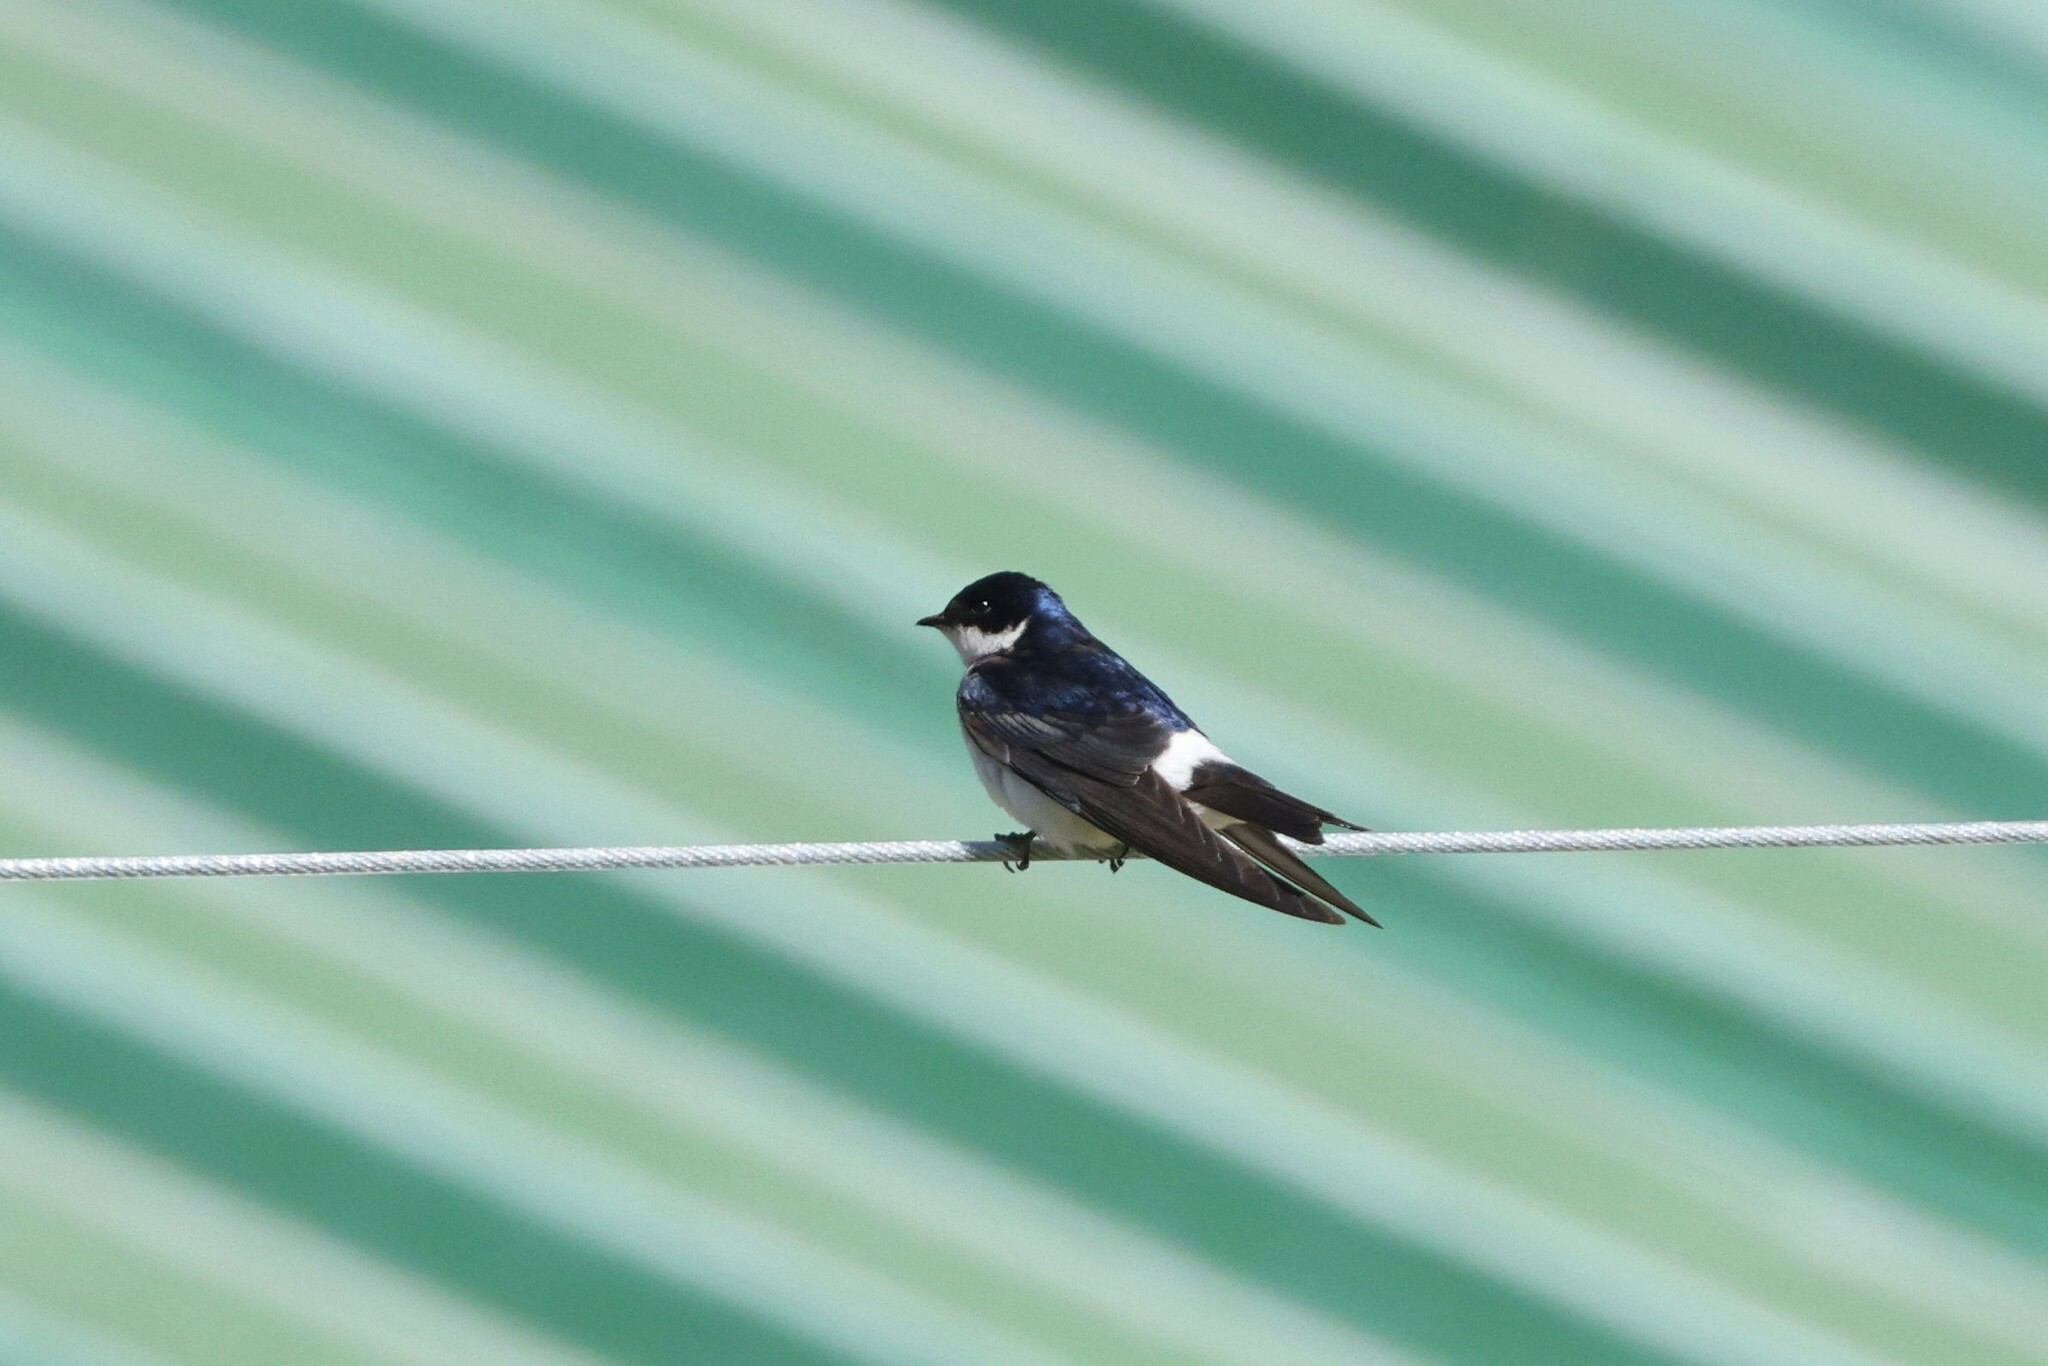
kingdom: Animalia
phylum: Chordata
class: Aves
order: Passeriformes
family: Hirundinidae
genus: Tachycineta
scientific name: Tachycineta leucopyga
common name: Chilean swallow
